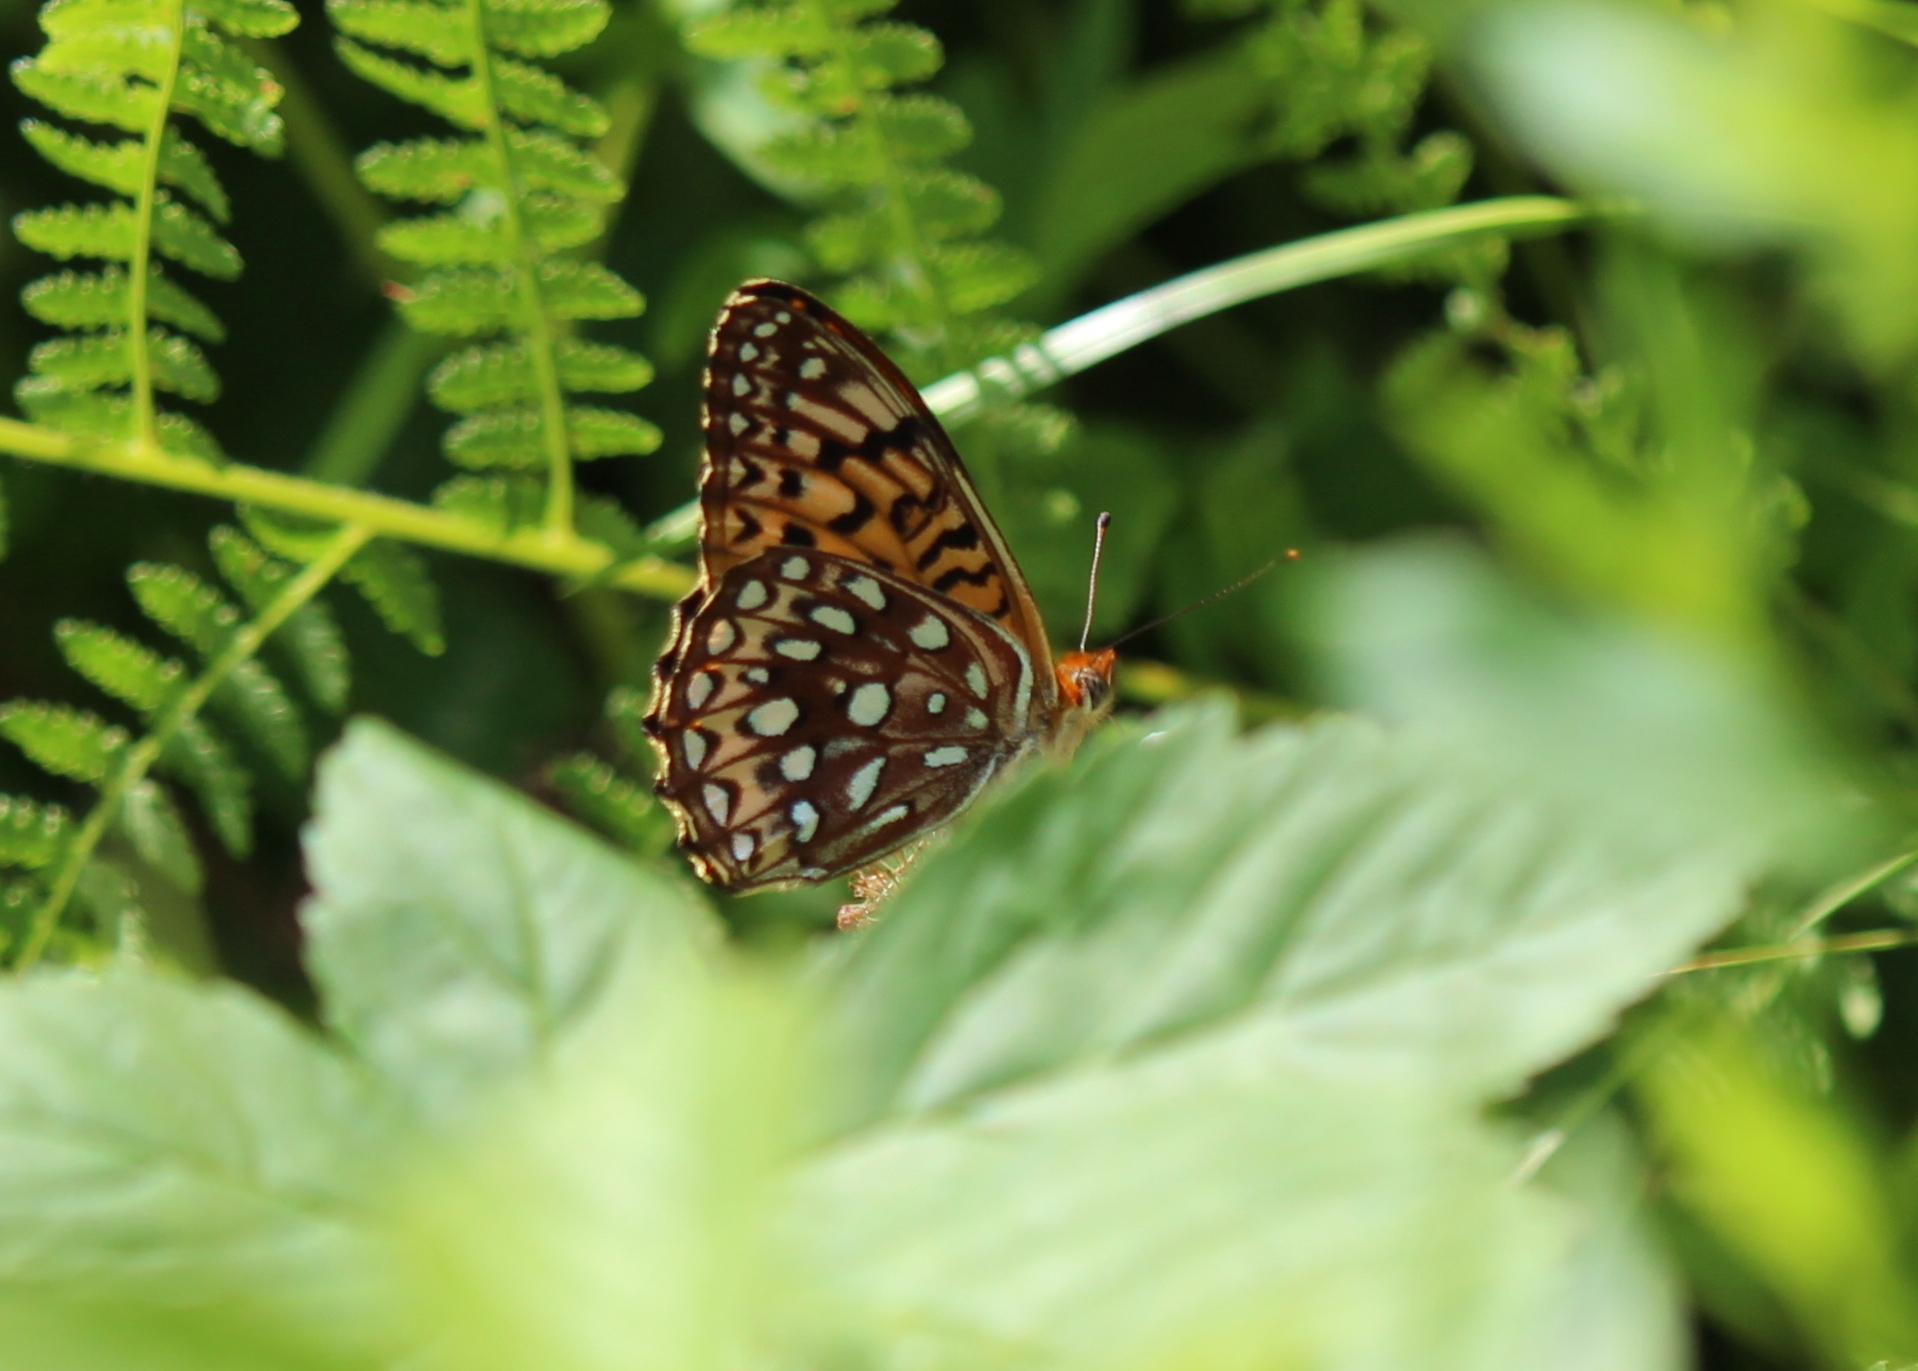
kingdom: Animalia
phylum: Arthropoda
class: Insecta
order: Lepidoptera
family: Nymphalidae
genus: Speyeria
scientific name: Speyeria atlantis
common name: Atlantis fritillary
